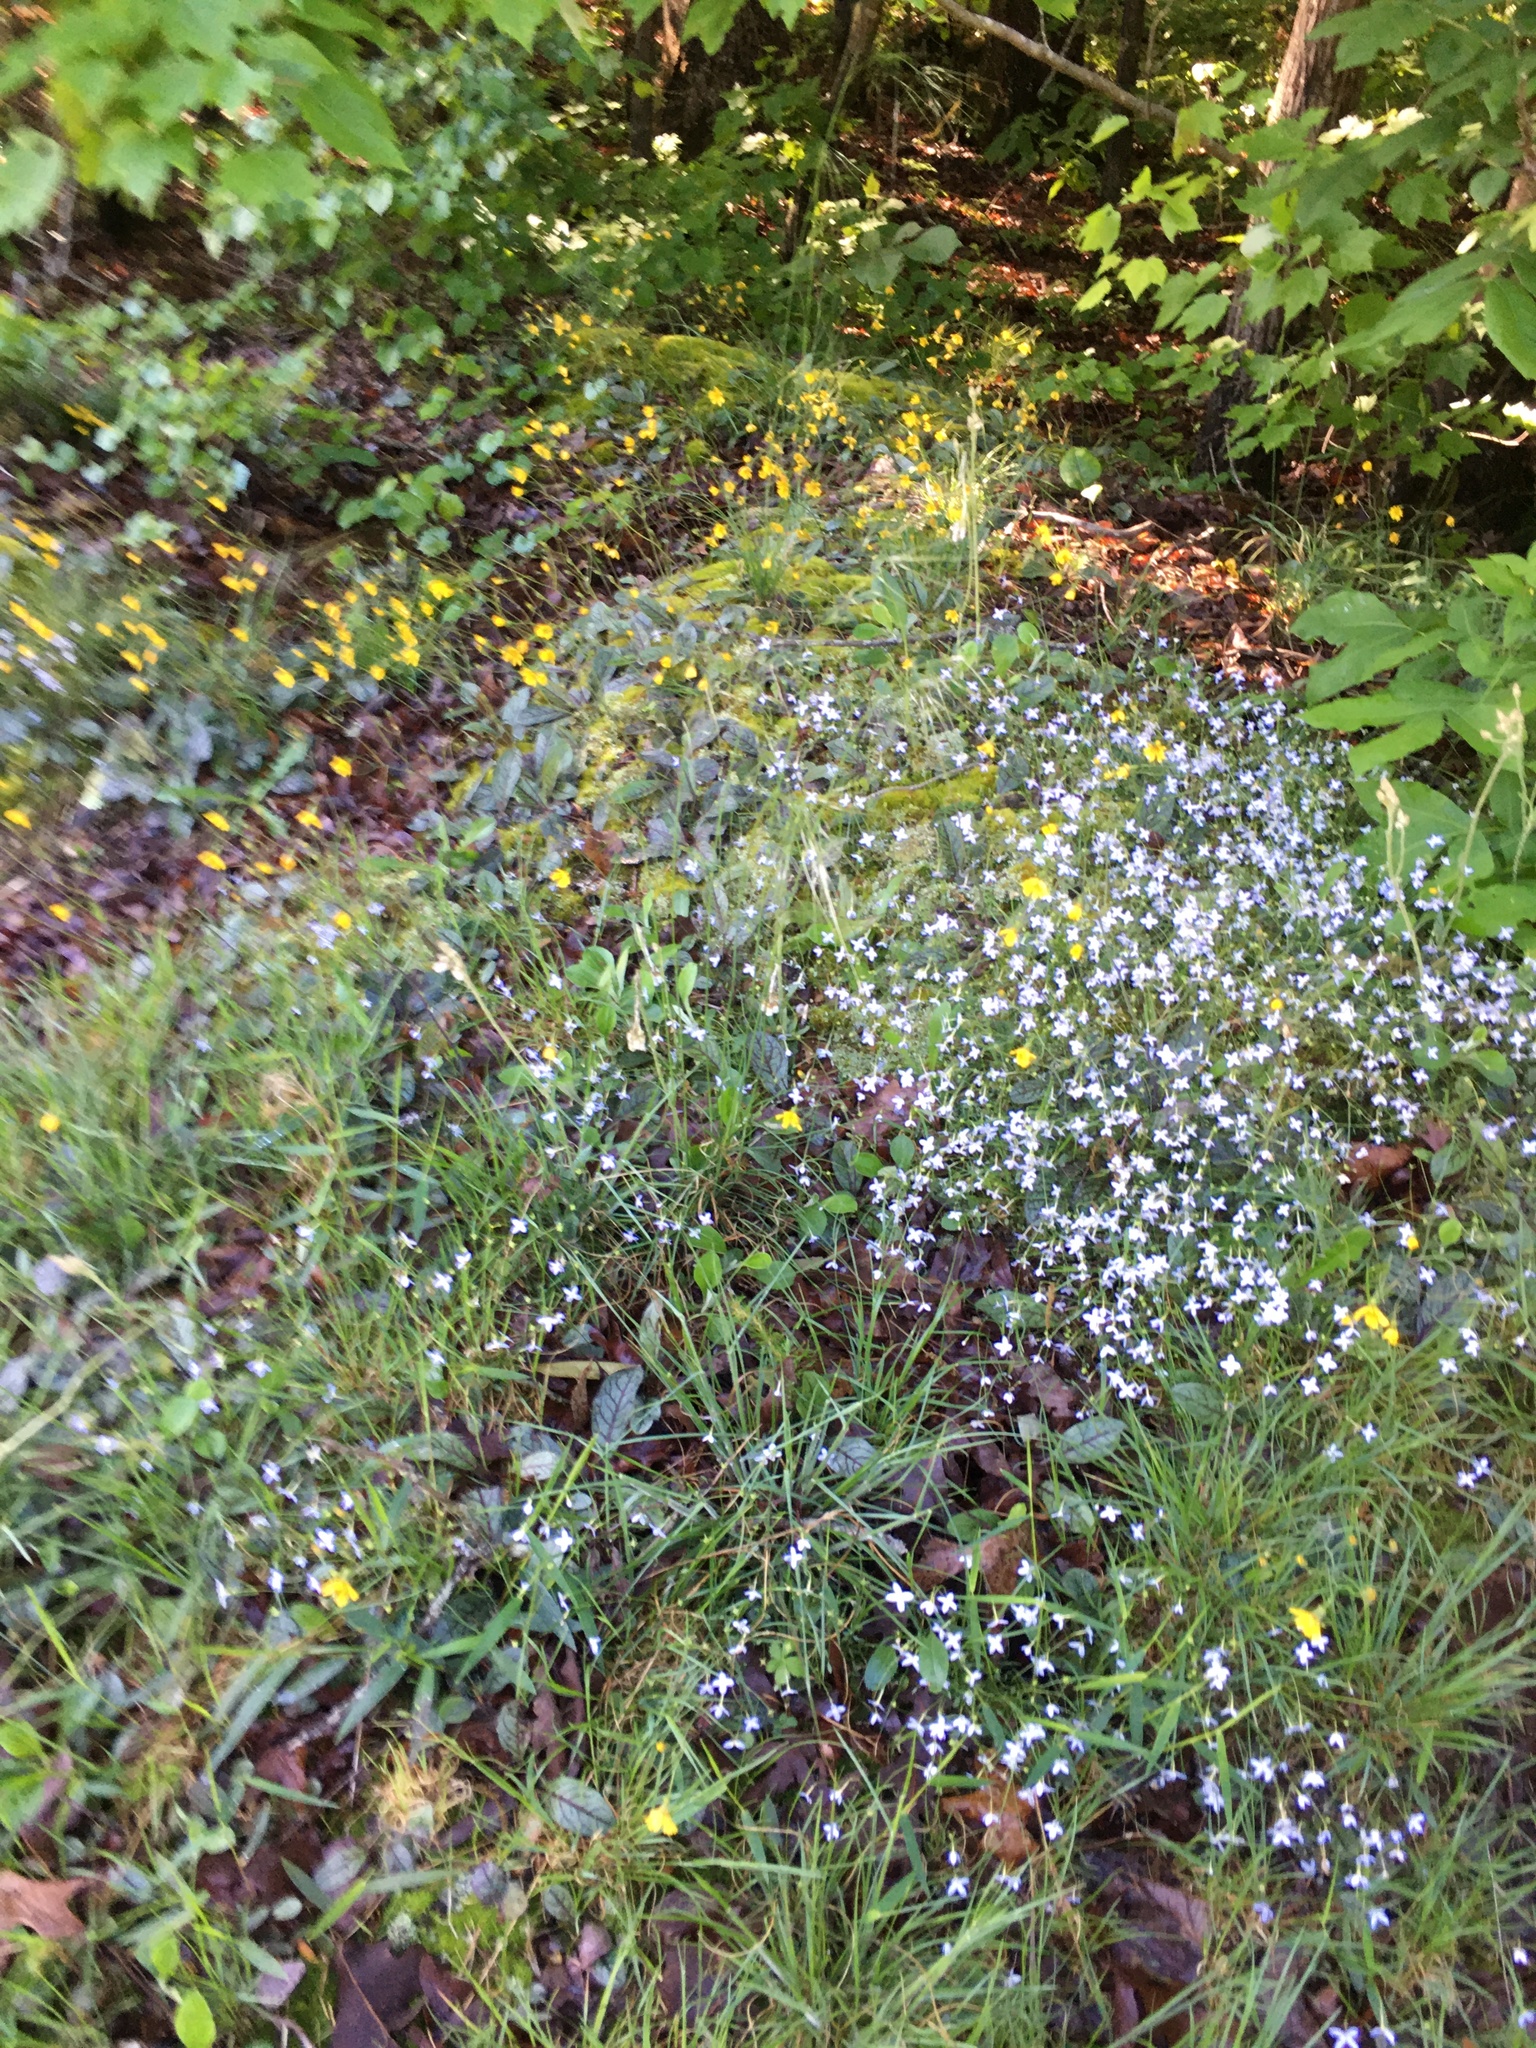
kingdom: Plantae
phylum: Tracheophyta
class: Magnoliopsida
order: Gentianales
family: Rubiaceae
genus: Houstonia
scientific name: Houstonia caerulea
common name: Bluets
